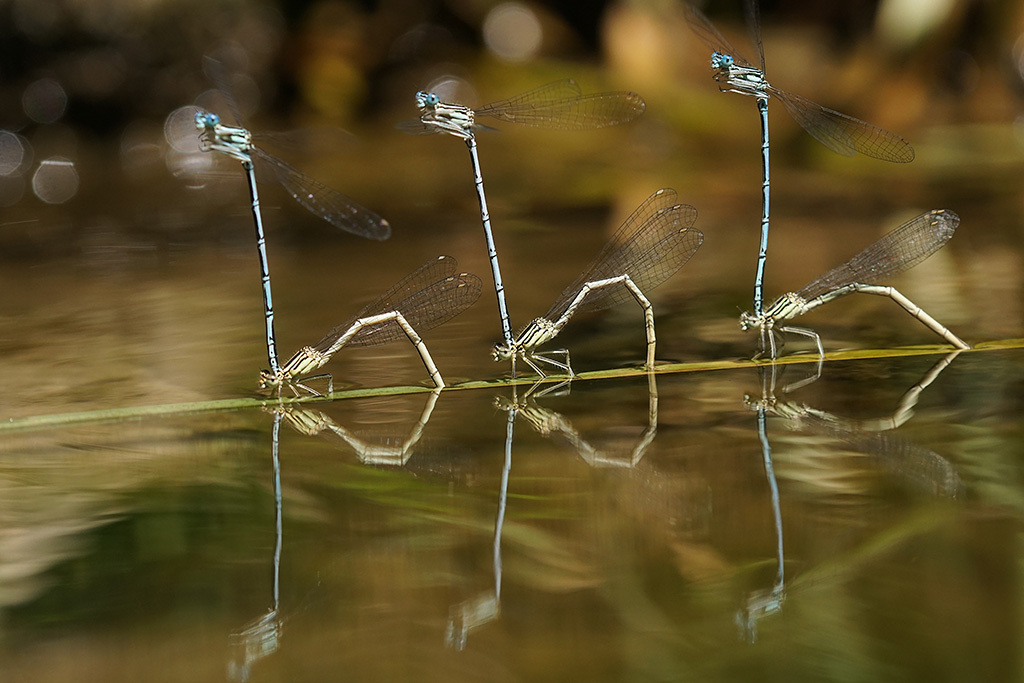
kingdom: Animalia
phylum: Arthropoda
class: Insecta
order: Odonata
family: Platycnemididae
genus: Platycnemis
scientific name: Platycnemis pennipes
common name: White-legged damselfly
